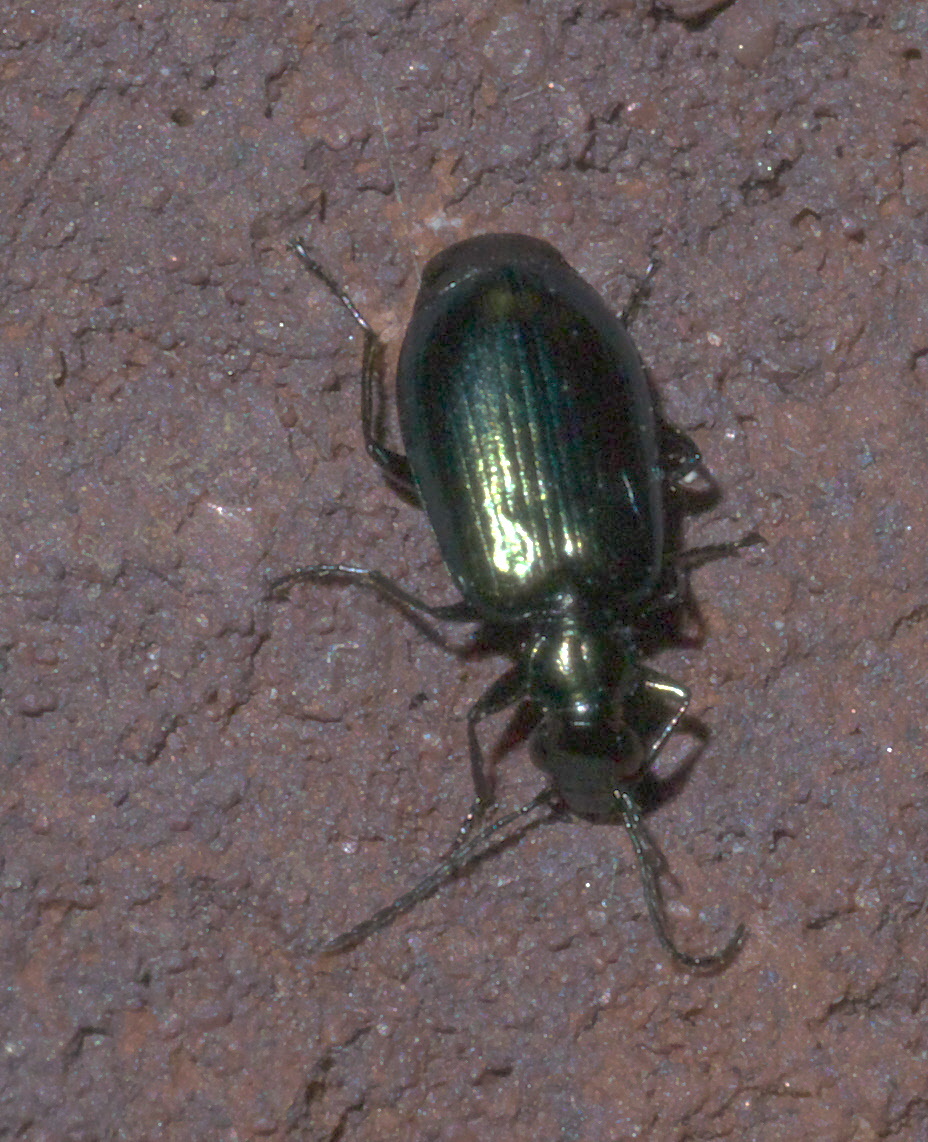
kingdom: Animalia
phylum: Arthropoda
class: Insecta
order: Coleoptera
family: Carabidae
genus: Lebia
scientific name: Lebia viridis
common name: Flower lebia beetle
